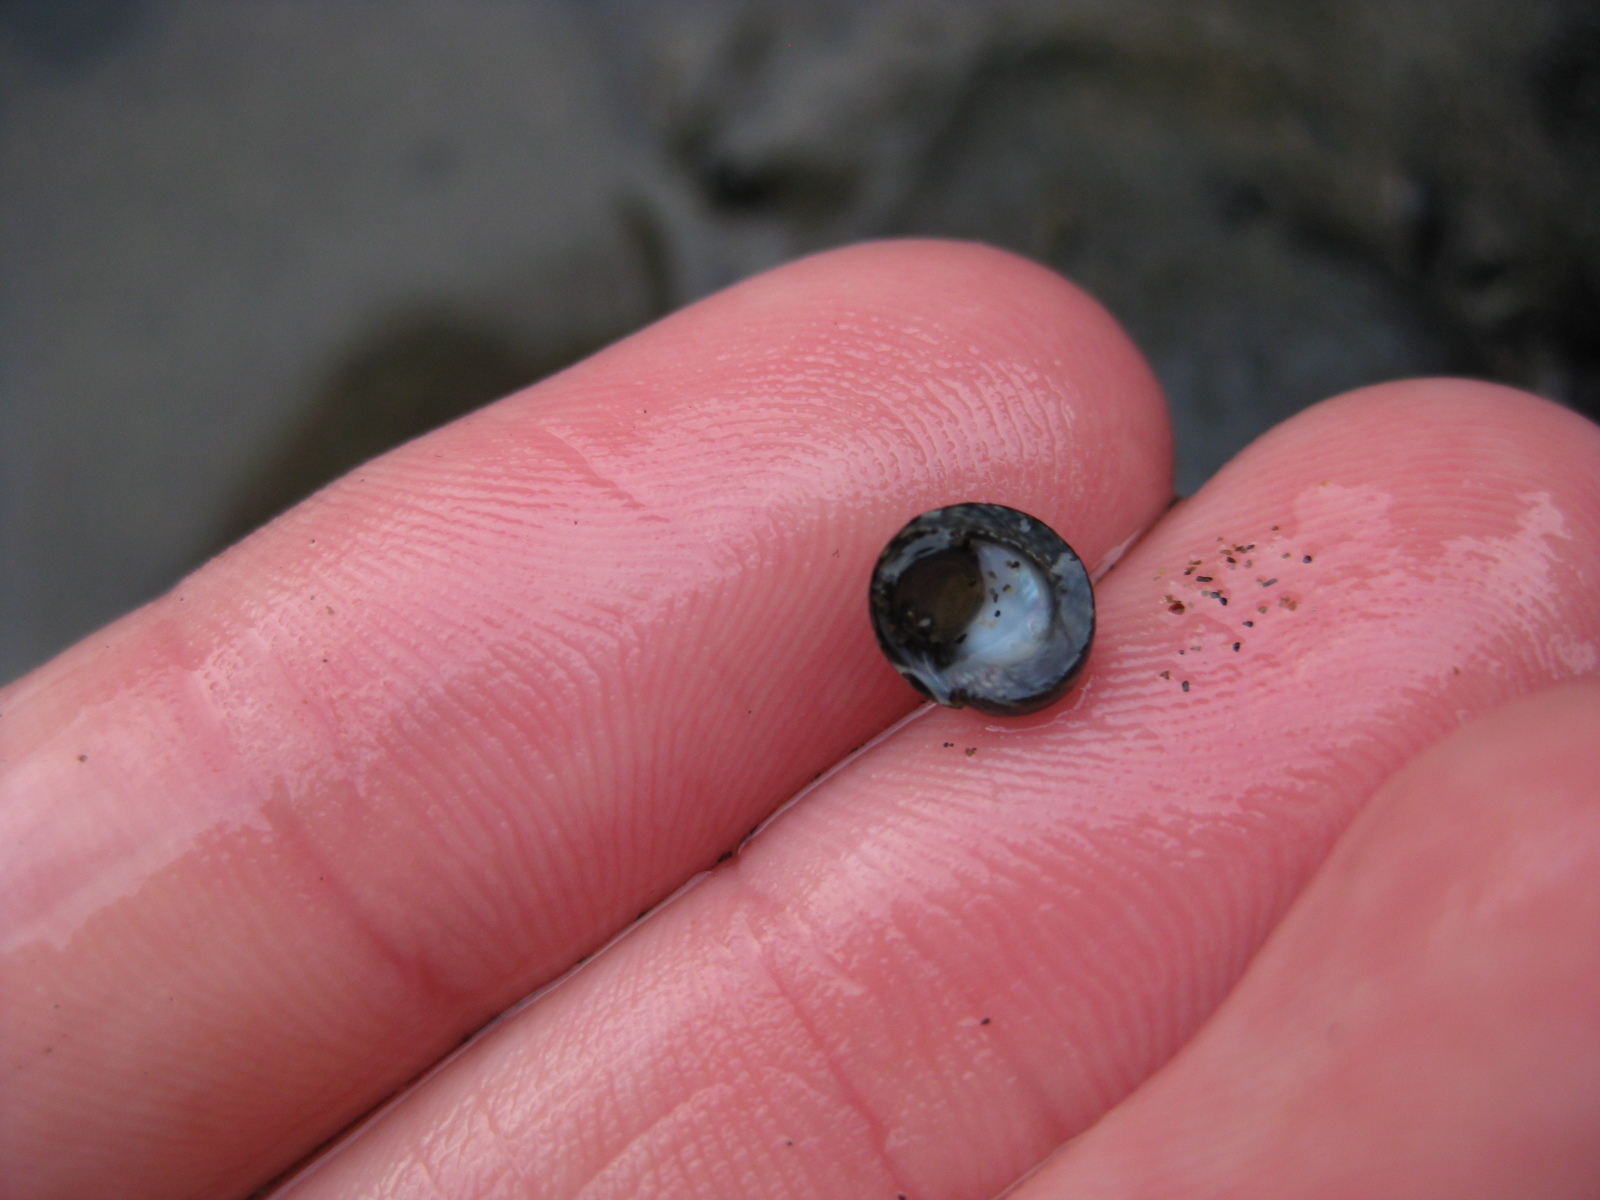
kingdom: Animalia
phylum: Mollusca
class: Gastropoda
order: Trochida
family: Trochidae
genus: Diloma
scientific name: Diloma coracinum
